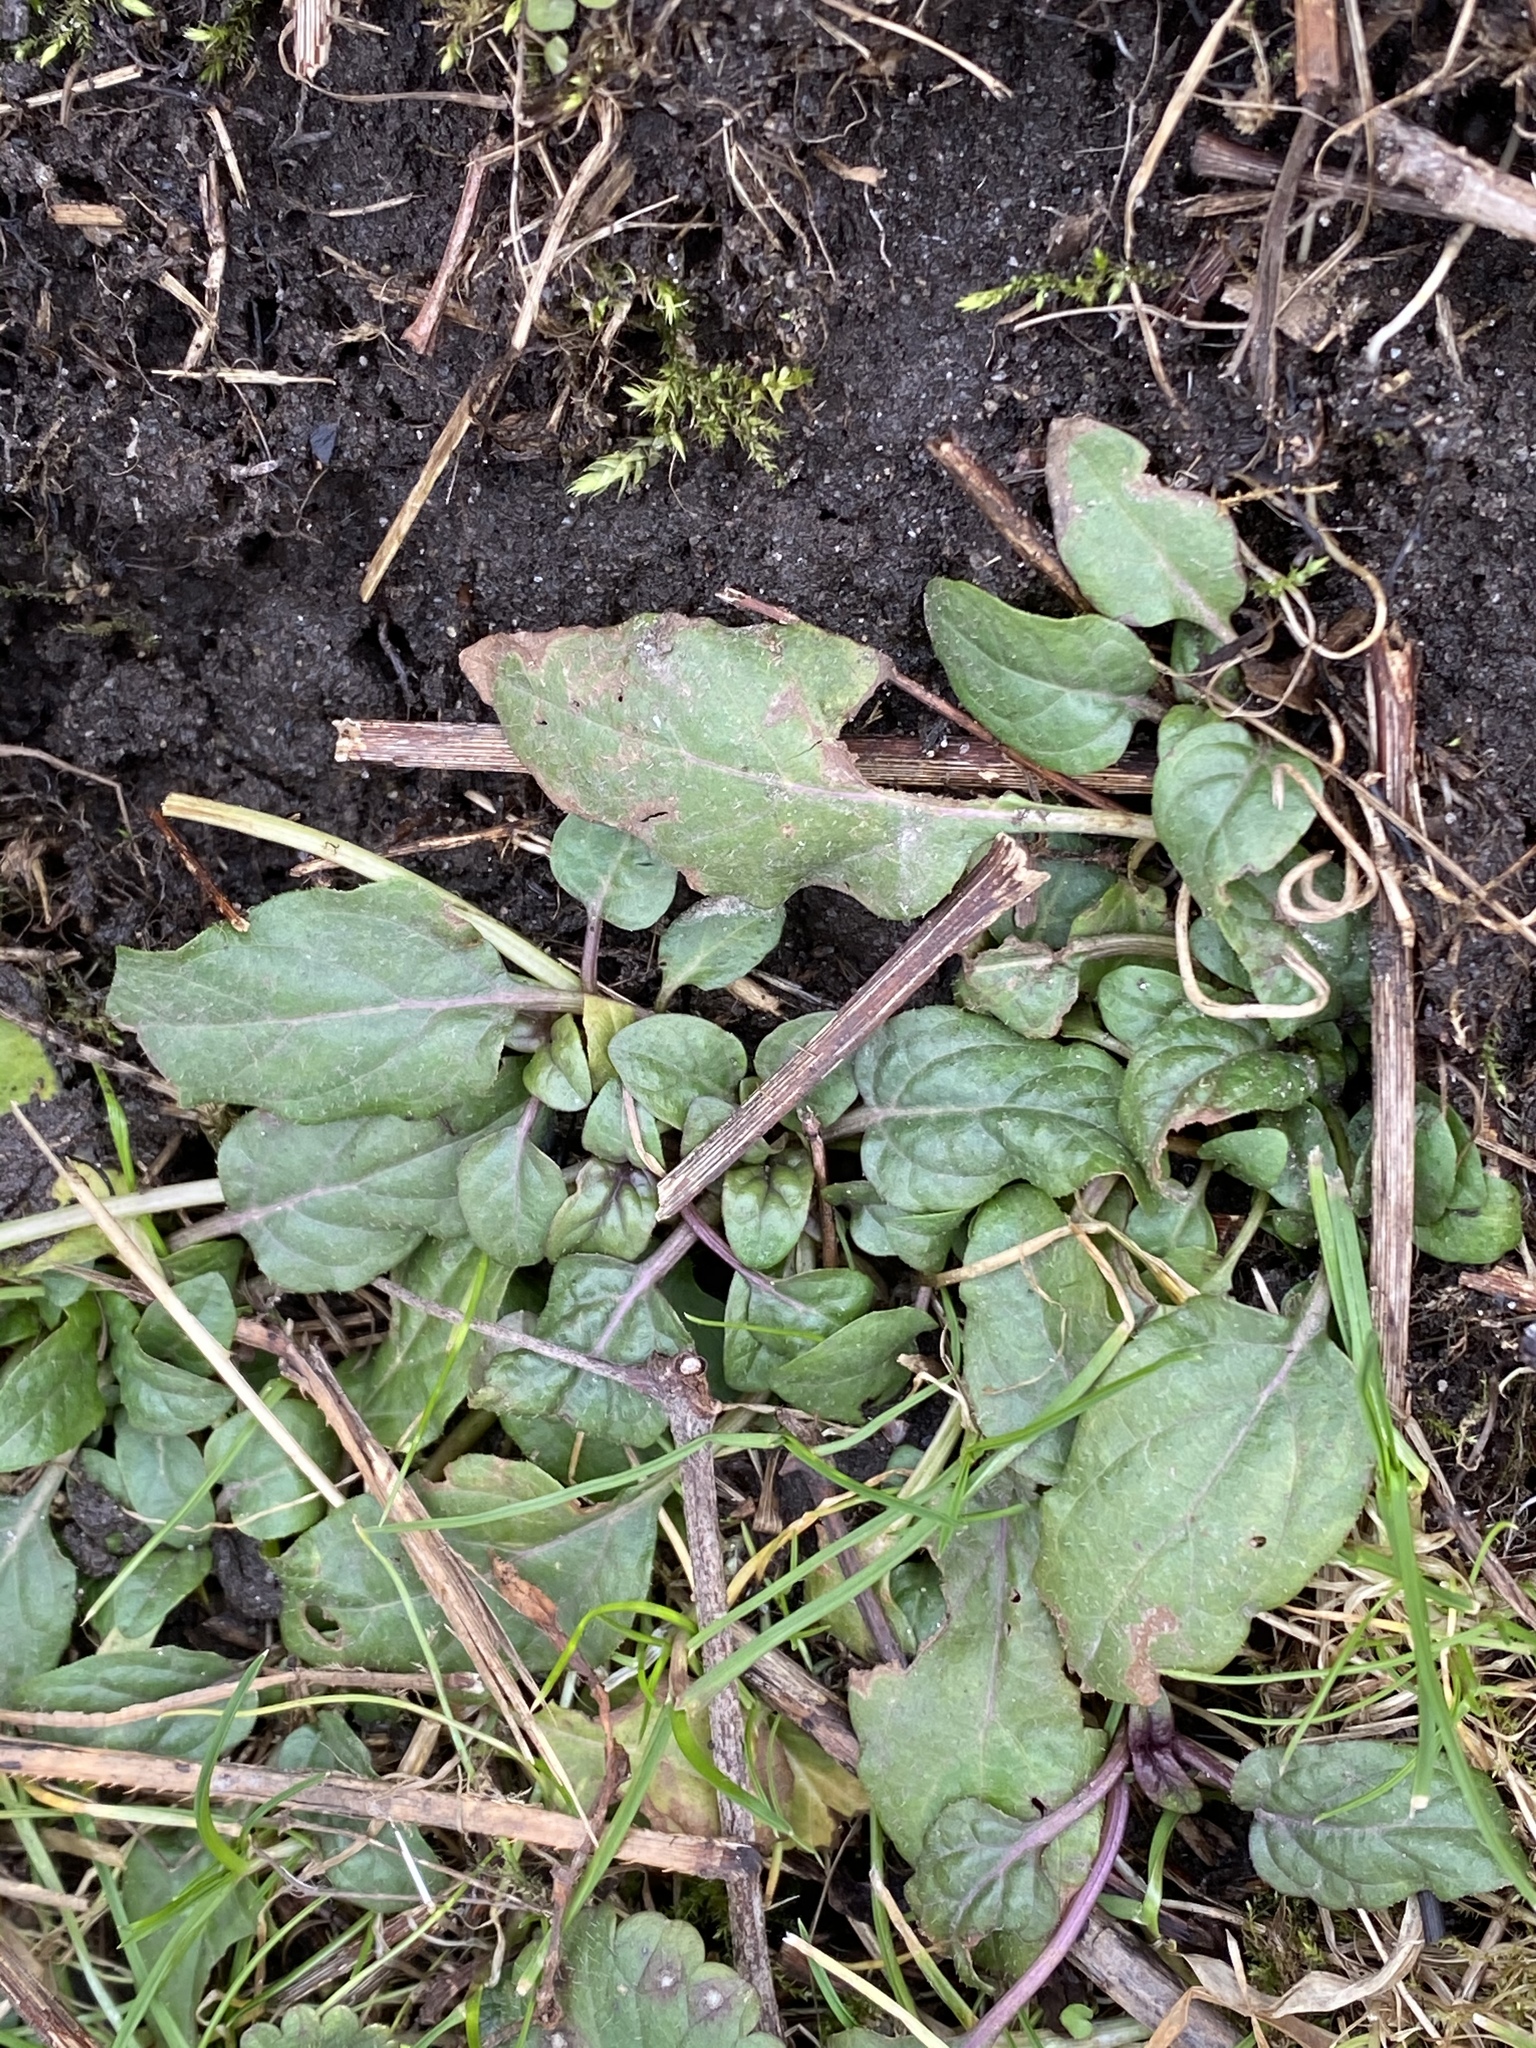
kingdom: Plantae
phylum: Tracheophyta
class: Magnoliopsida
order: Lamiales
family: Lamiaceae
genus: Prunella
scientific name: Prunella vulgaris
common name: Heal-all
